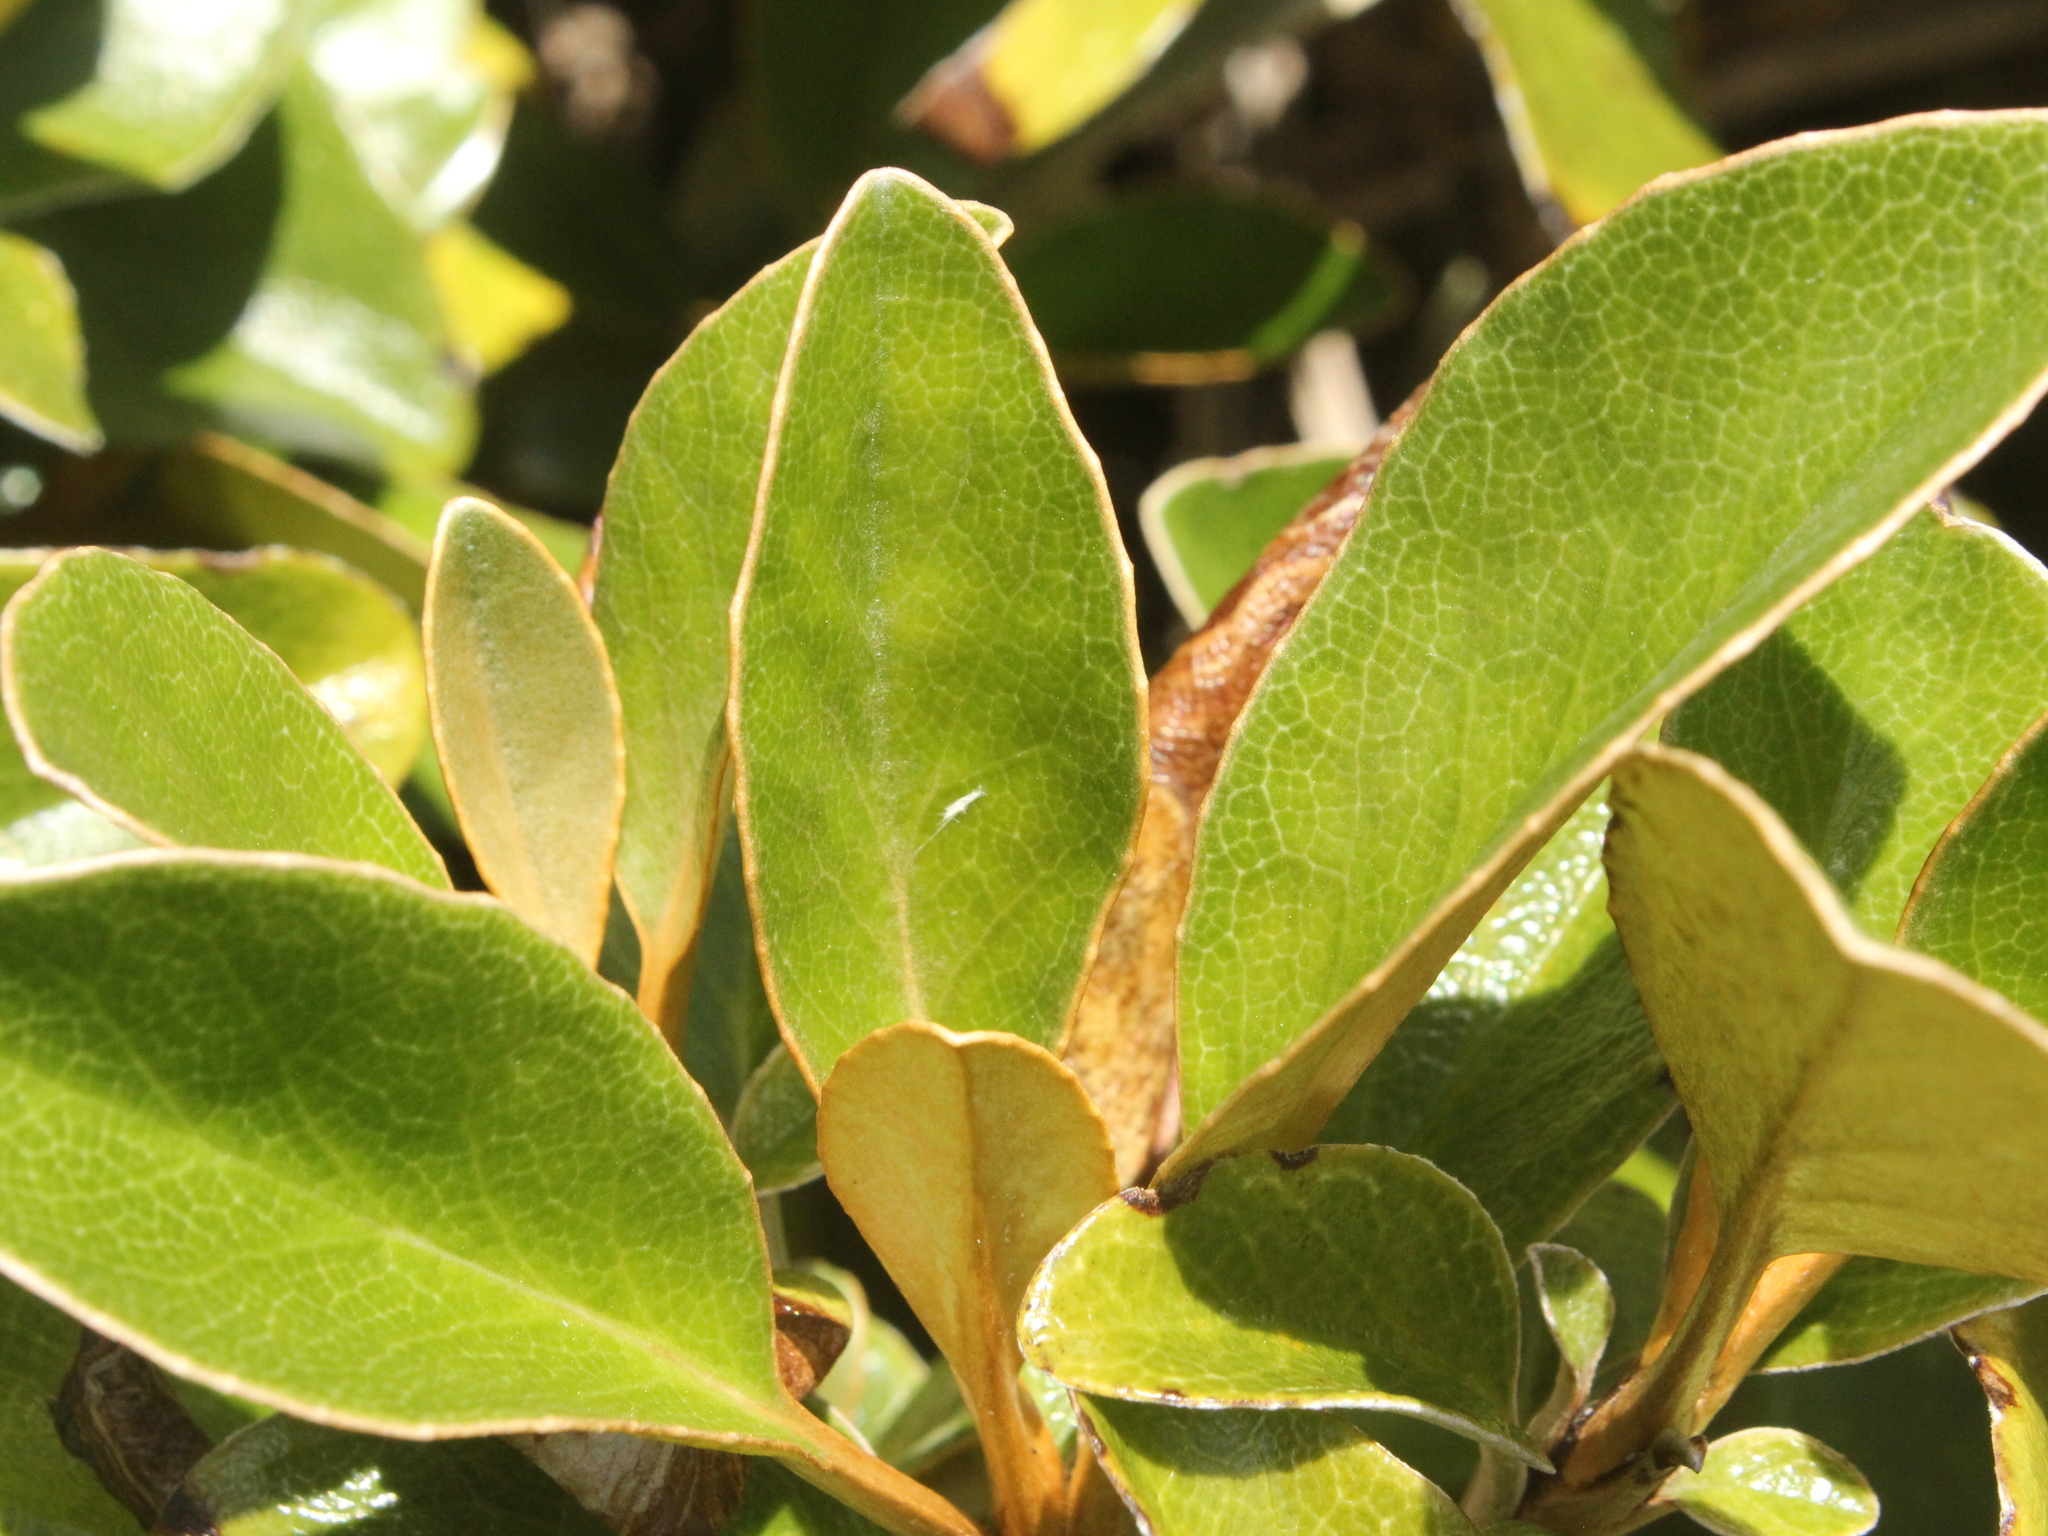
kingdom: Plantae
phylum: Tracheophyta
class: Magnoliopsida
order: Asterales
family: Asteraceae
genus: Brachyglottis
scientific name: Brachyglottis elaeagnifolia
